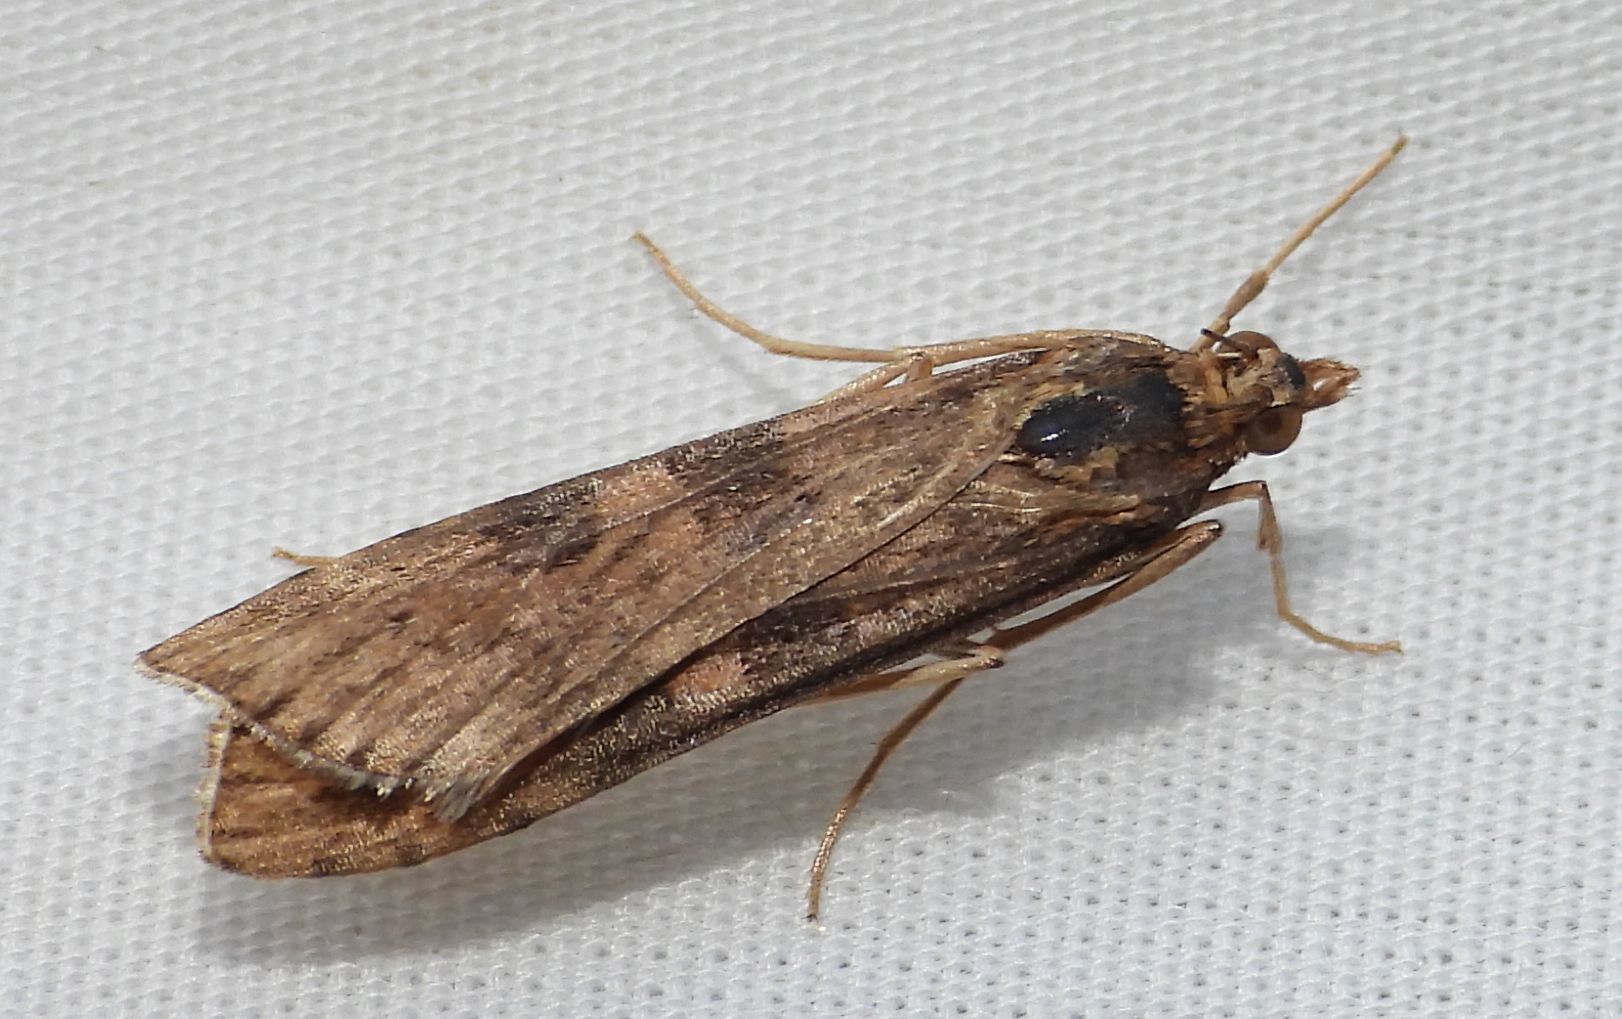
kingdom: Animalia
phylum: Arthropoda
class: Insecta
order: Lepidoptera
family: Crambidae
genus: Nomophila
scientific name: Nomophila nearctica
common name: American rush veneer
